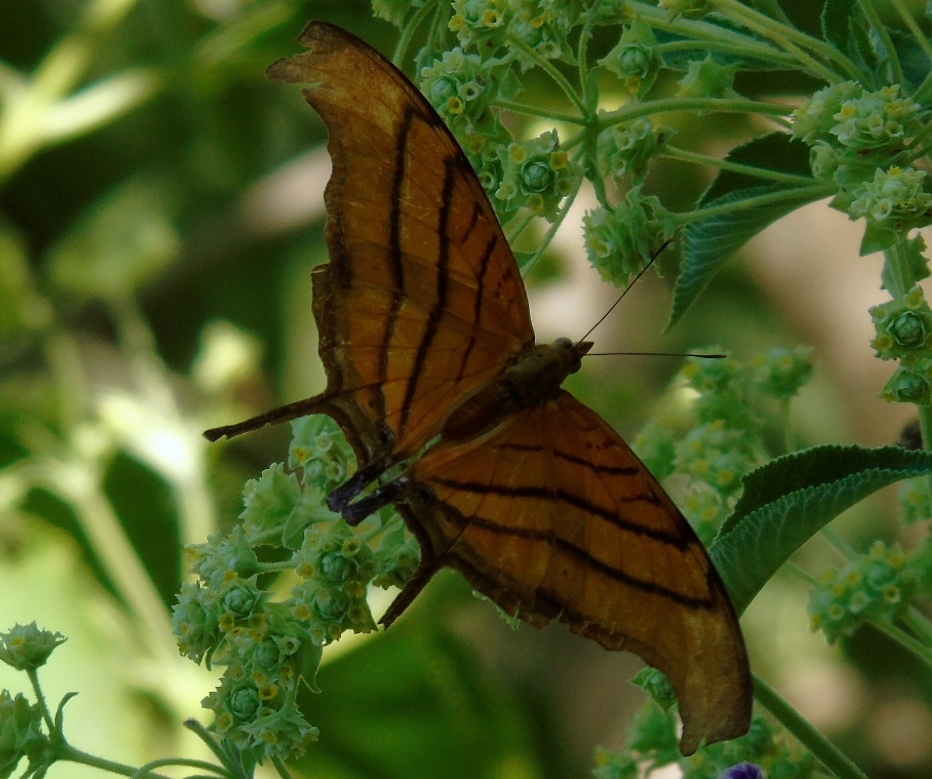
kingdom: Animalia
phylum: Arthropoda
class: Insecta
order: Lepidoptera
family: Nymphalidae
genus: Marpesia
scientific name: Marpesia petreus
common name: Red dagger wing
